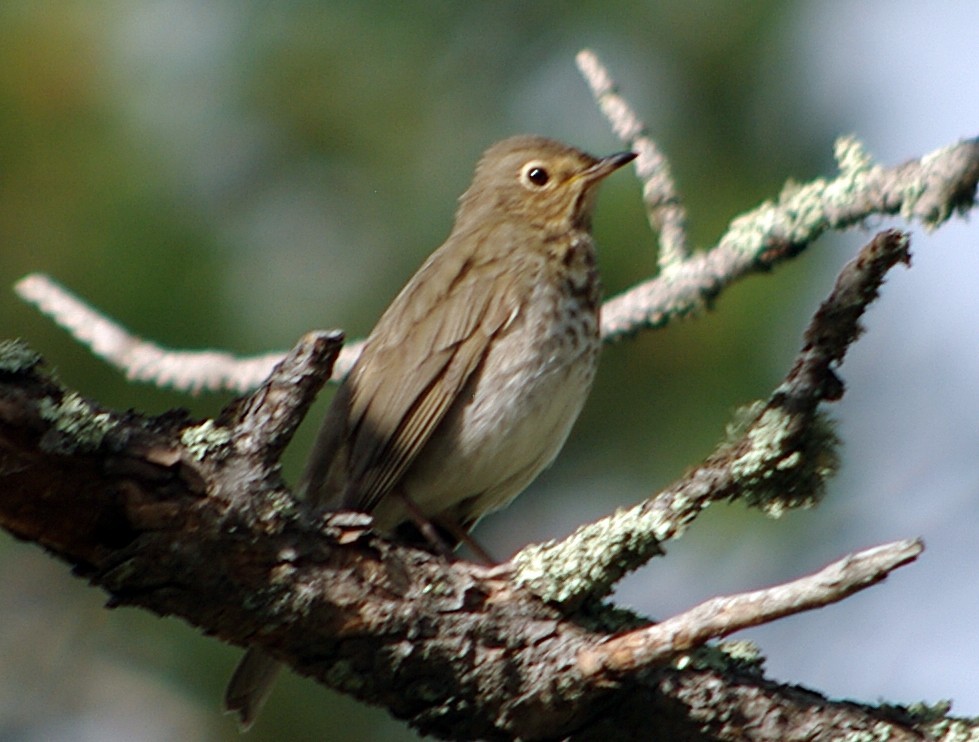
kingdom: Animalia
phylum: Chordata
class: Aves
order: Passeriformes
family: Turdidae
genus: Catharus
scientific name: Catharus ustulatus
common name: Swainson's thrush
